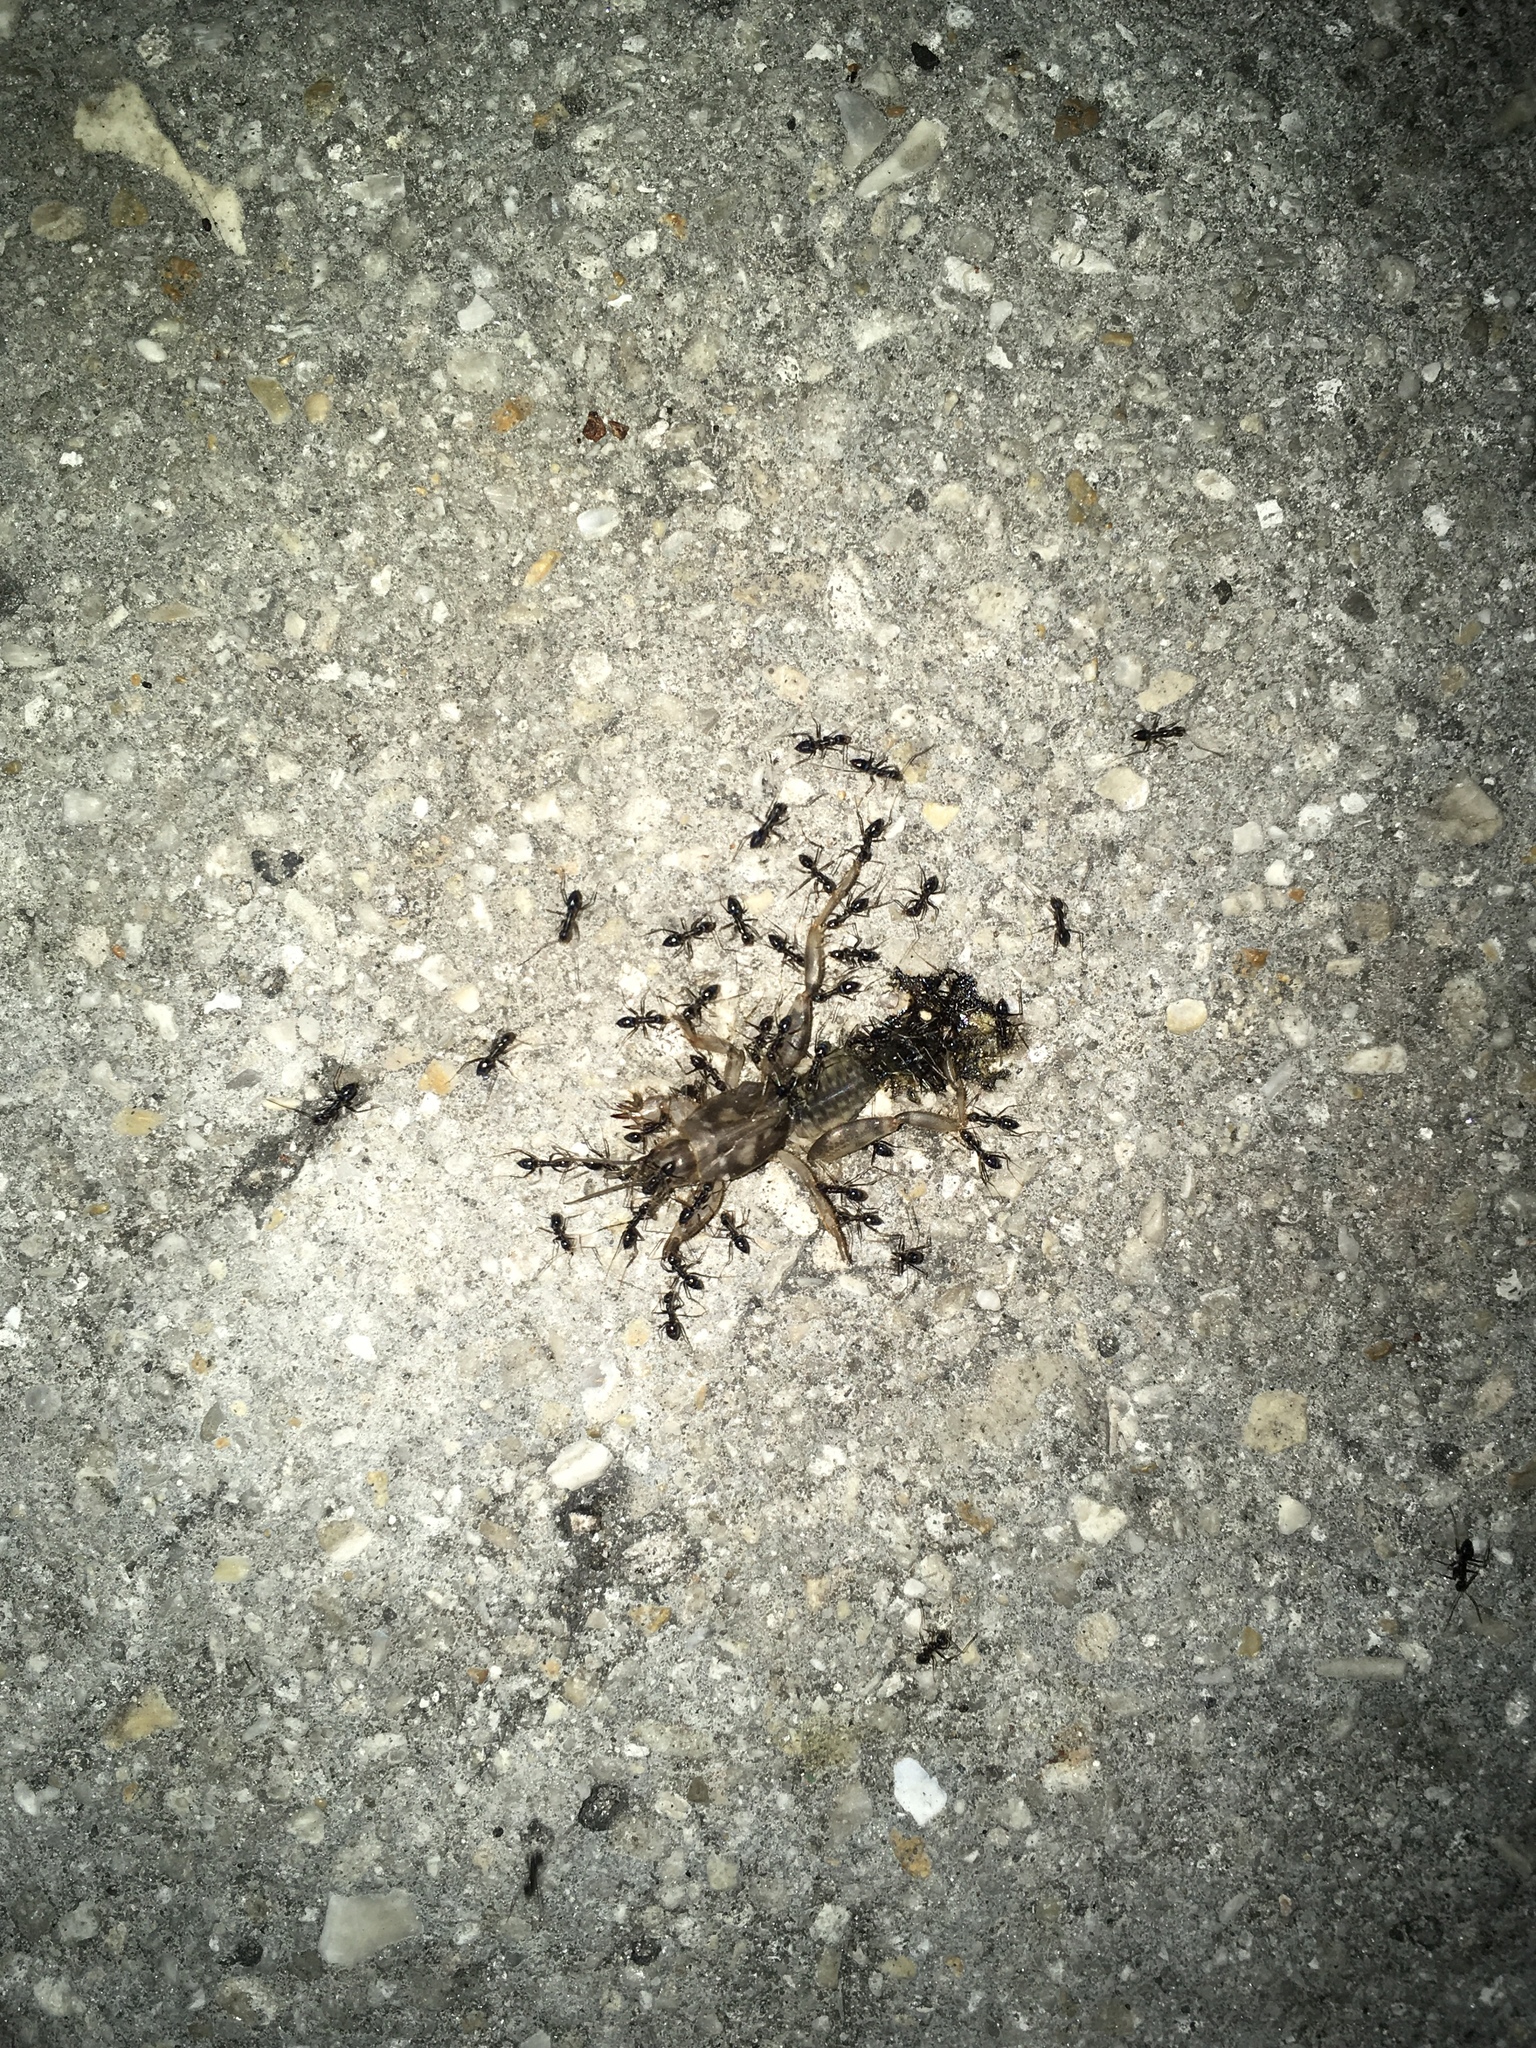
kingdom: Animalia
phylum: Arthropoda
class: Insecta
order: Hymenoptera
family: Formicidae
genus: Paratrechina
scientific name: Paratrechina longicornis
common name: Longhorned crazy ant
